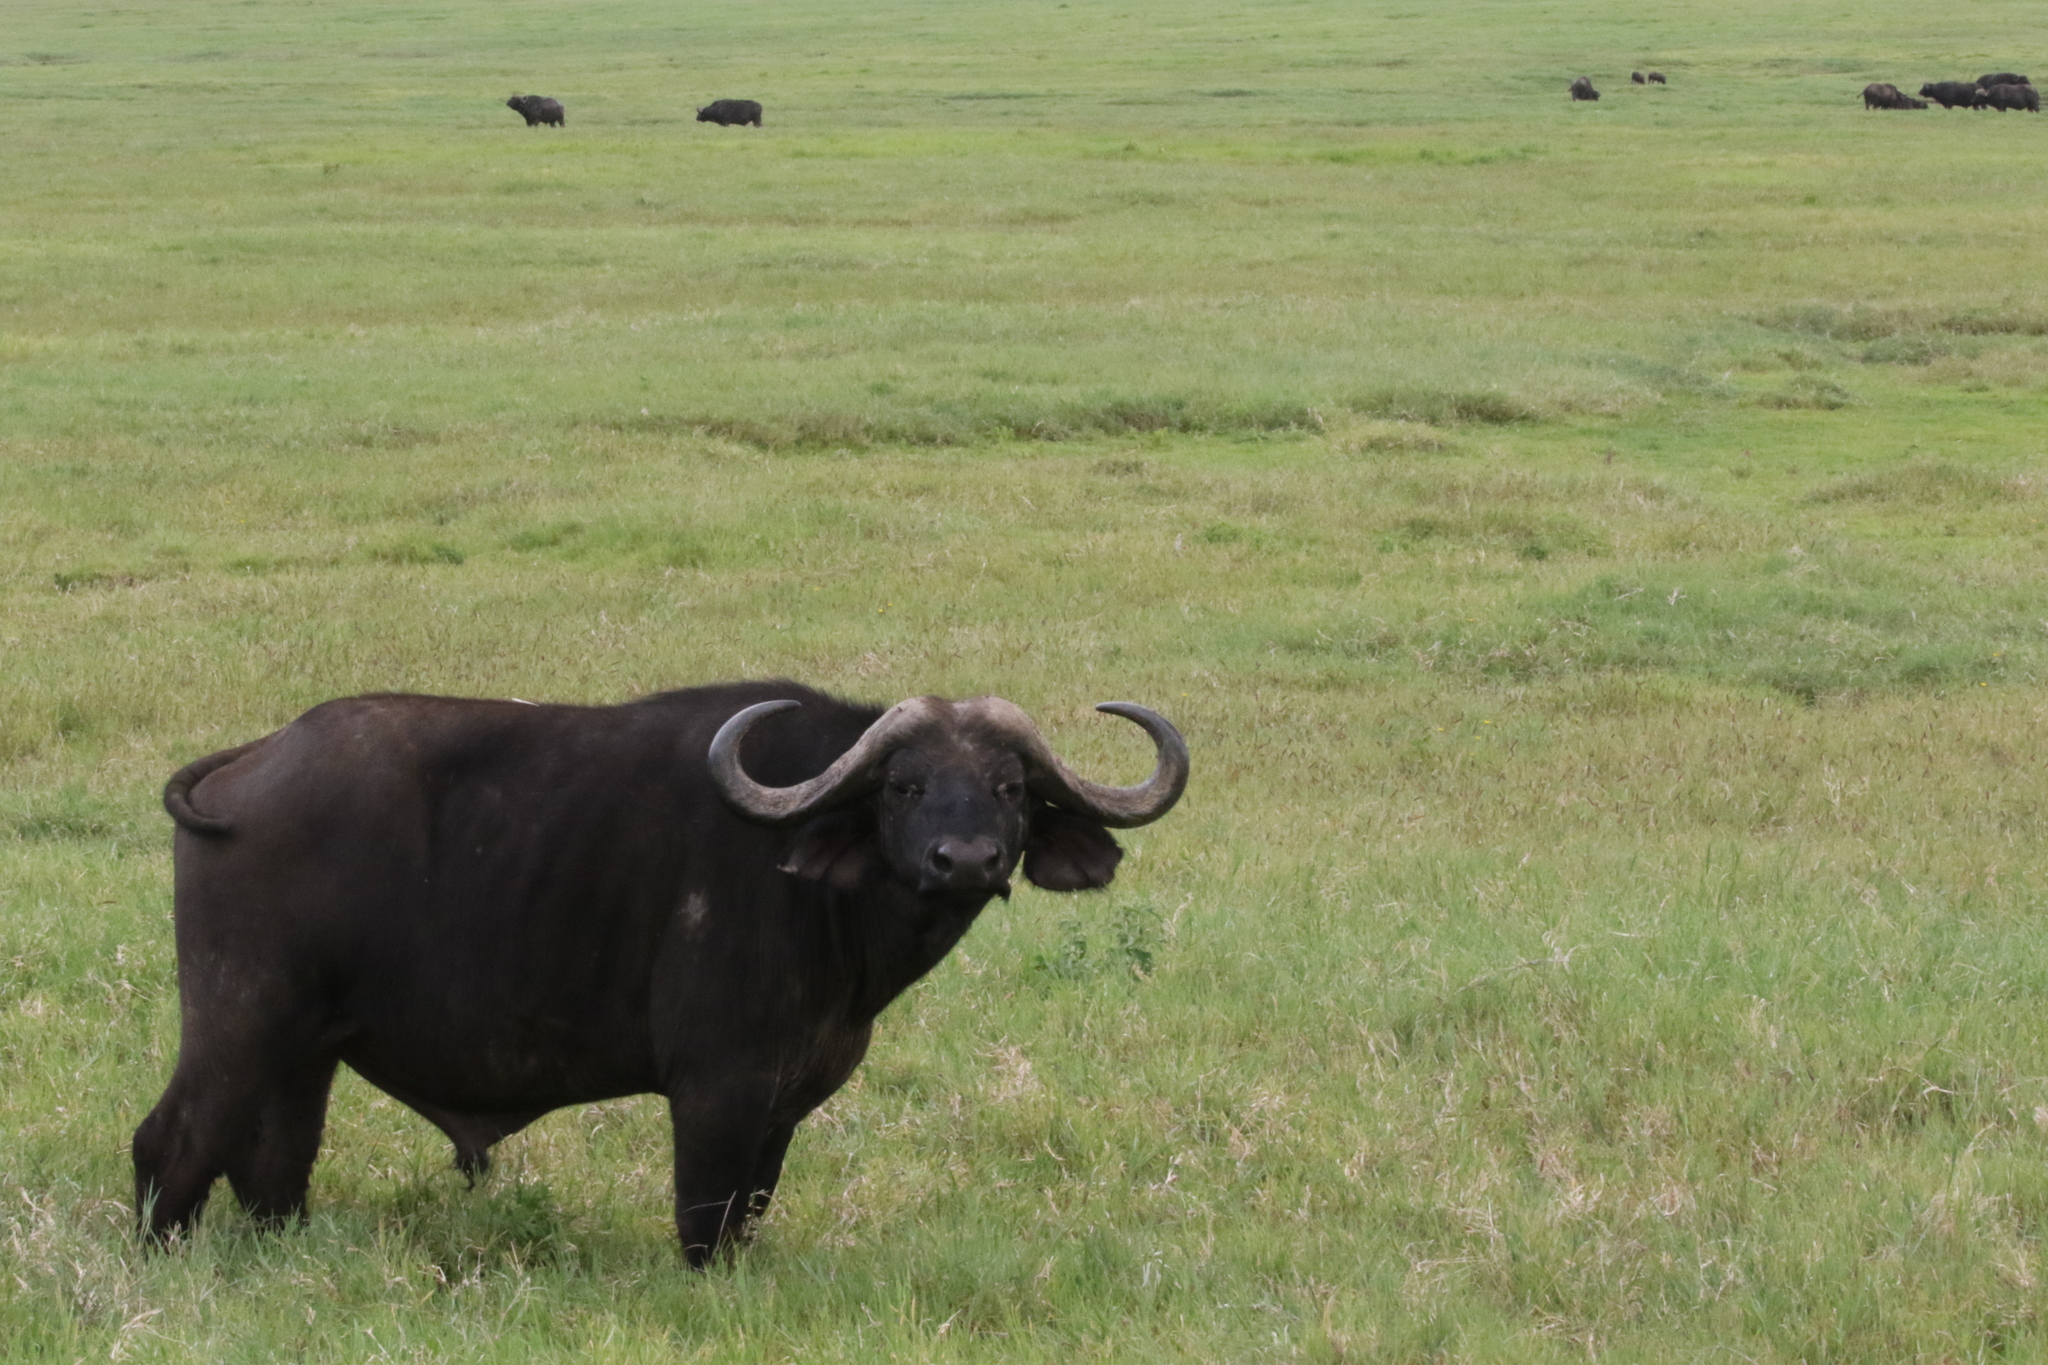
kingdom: Animalia
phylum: Chordata
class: Mammalia
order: Artiodactyla
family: Bovidae
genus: Syncerus
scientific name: Syncerus caffer
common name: African buffalo
